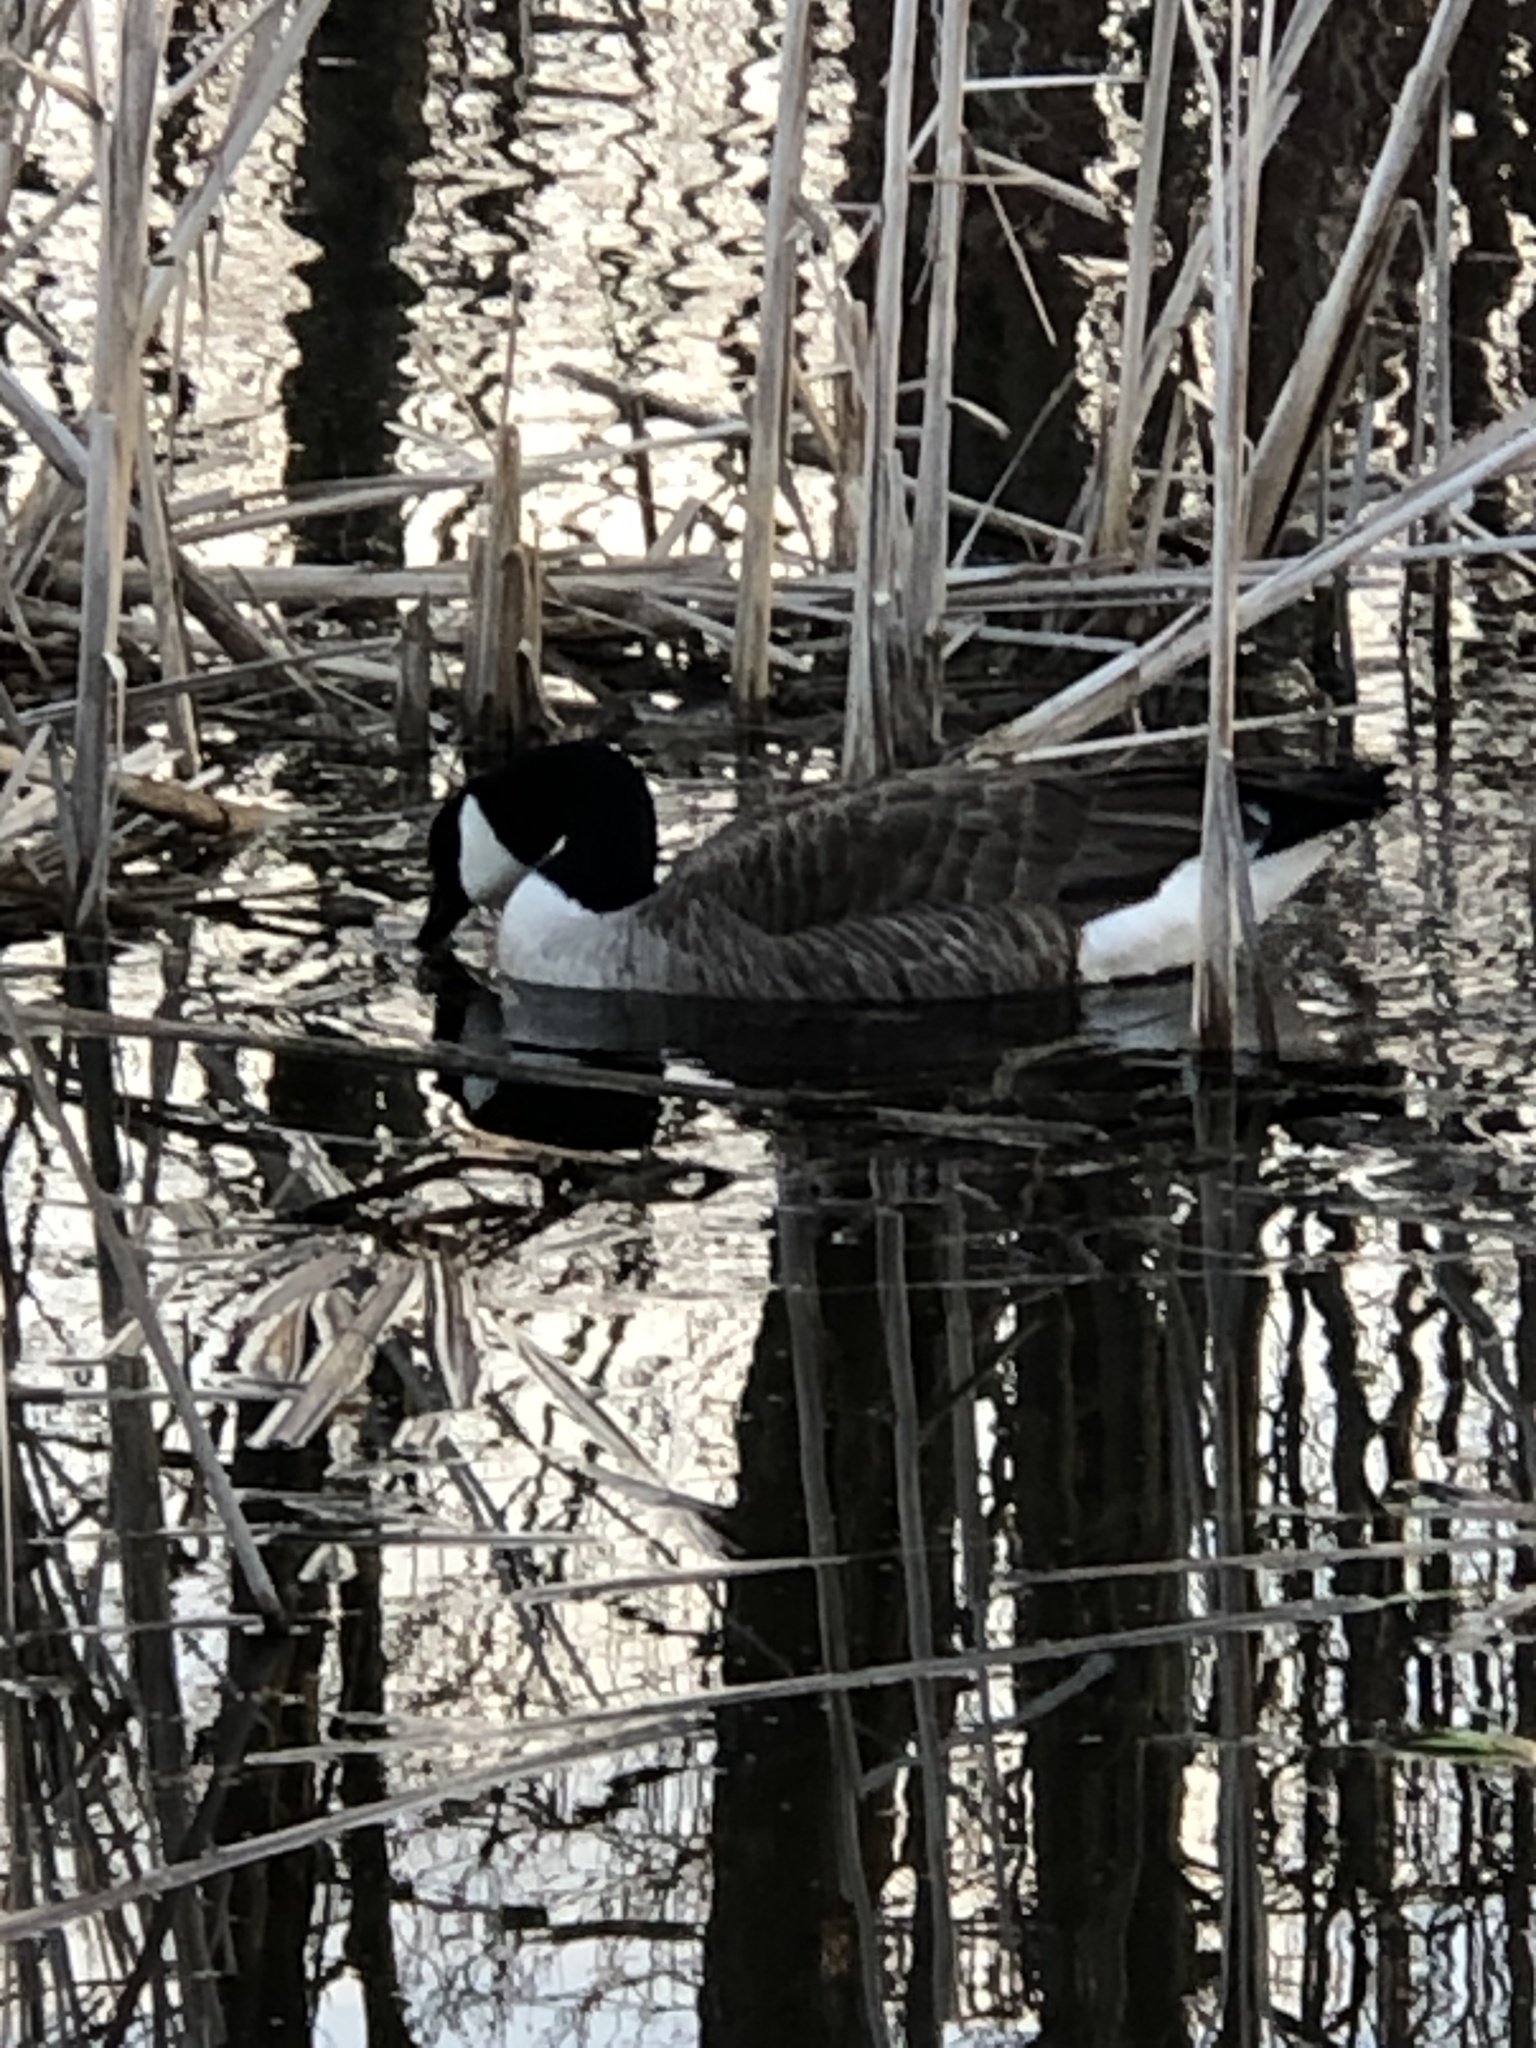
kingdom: Animalia
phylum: Chordata
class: Aves
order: Anseriformes
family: Anatidae
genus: Branta
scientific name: Branta canadensis
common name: Canada goose
